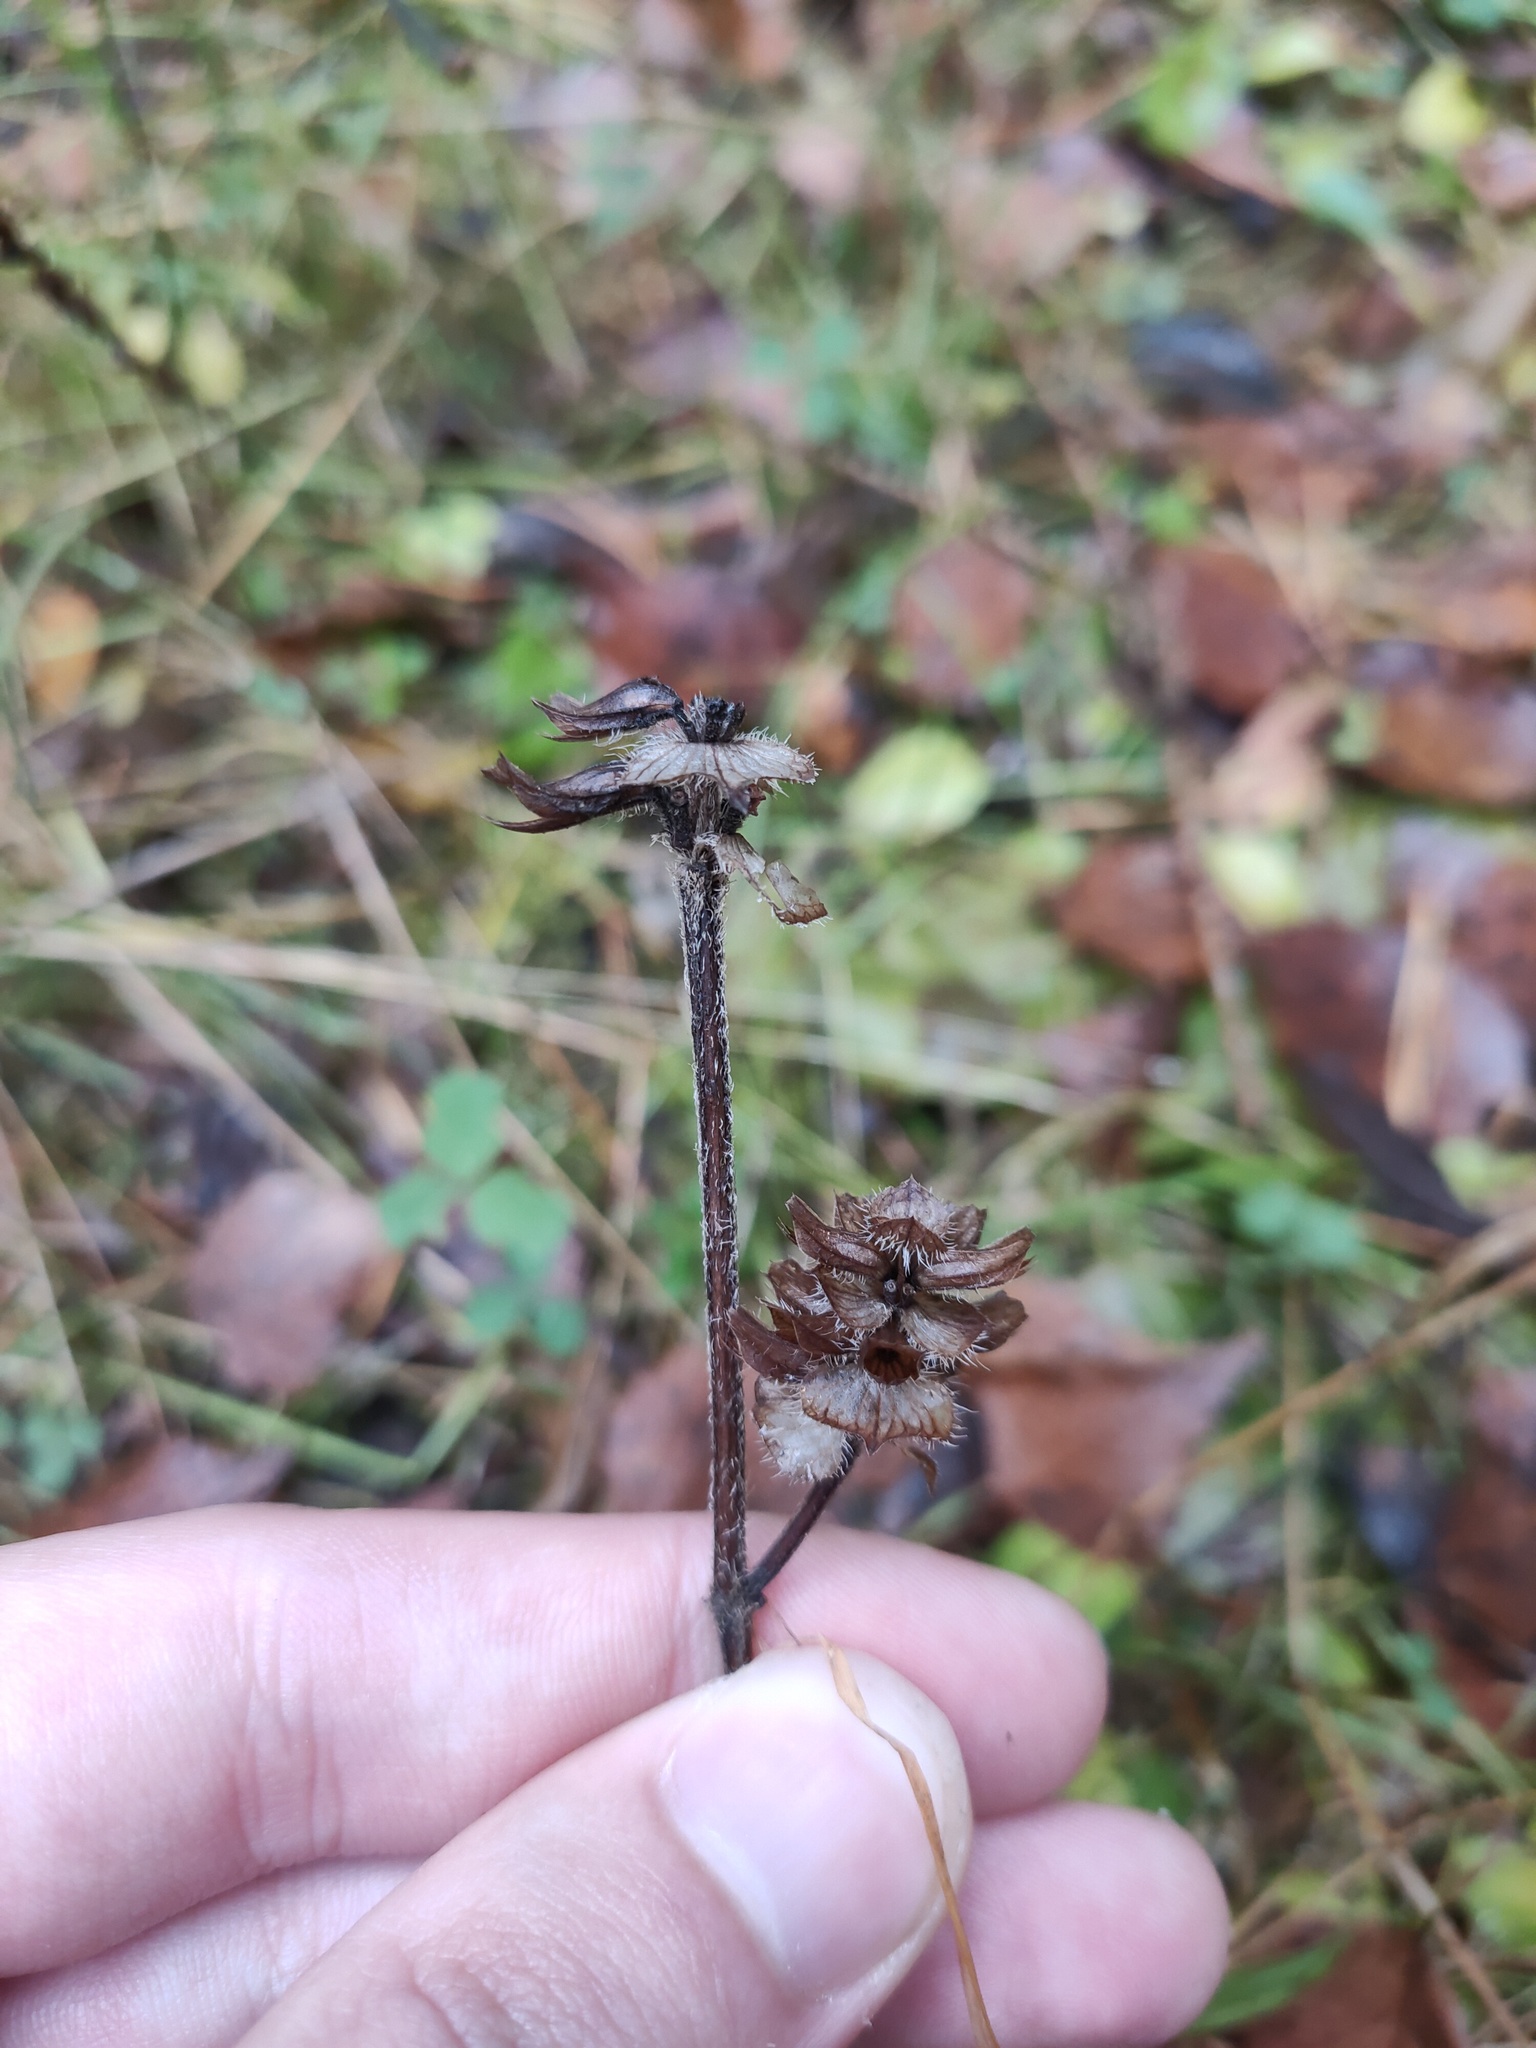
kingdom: Plantae
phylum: Tracheophyta
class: Magnoliopsida
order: Lamiales
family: Lamiaceae
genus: Prunella
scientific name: Prunella vulgaris
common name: Heal-all
